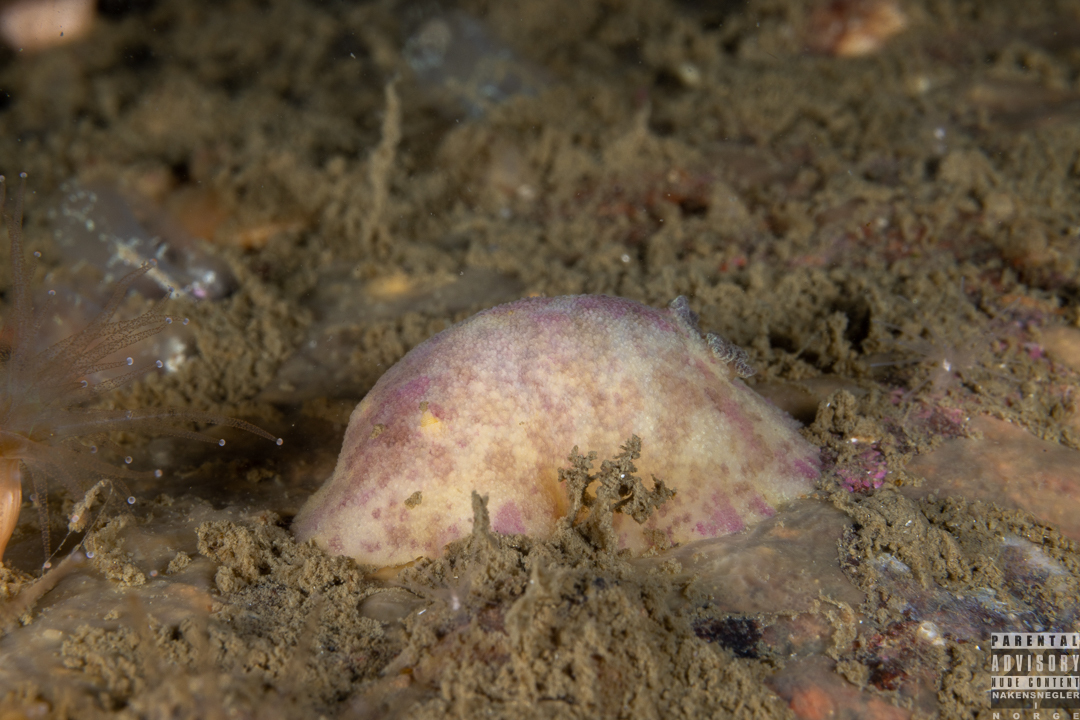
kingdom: Animalia
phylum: Mollusca
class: Gastropoda
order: Nudibranchia
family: Dorididae
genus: Doris
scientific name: Doris pseudoargus
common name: Sea lemon
